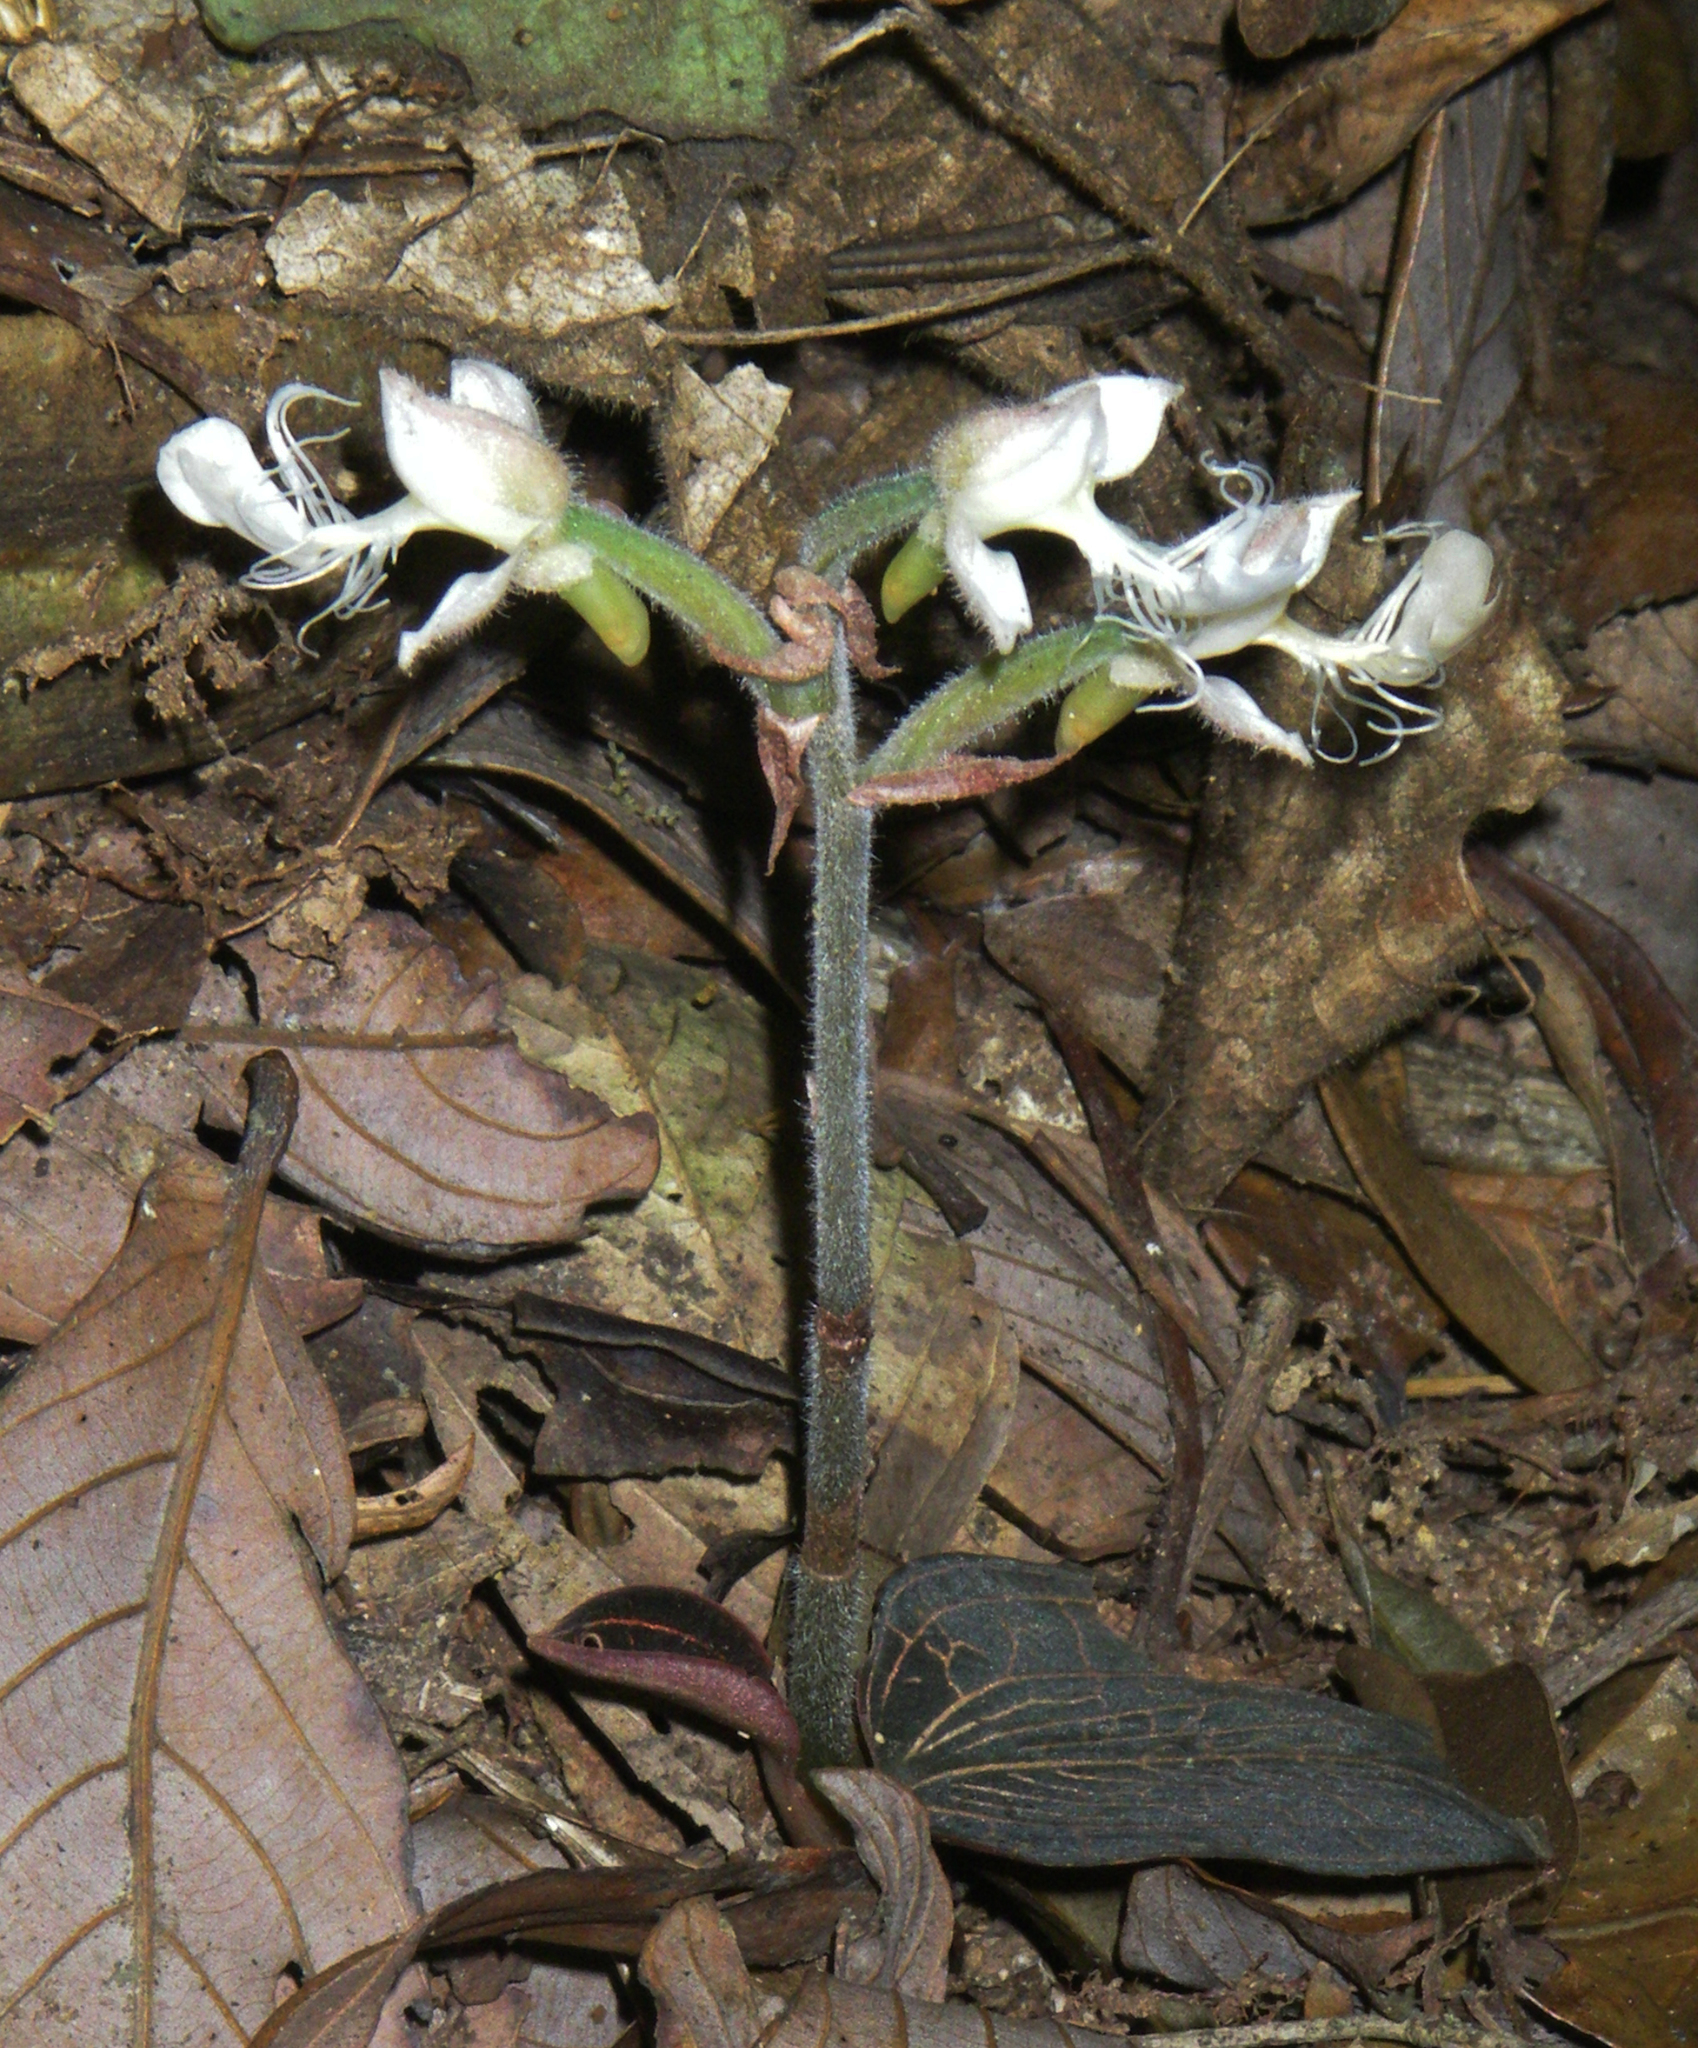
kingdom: Plantae
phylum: Tracheophyta
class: Liliopsida
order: Asparagales
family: Orchidaceae
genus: Anoectochilus
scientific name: Anoectochilus monicae
